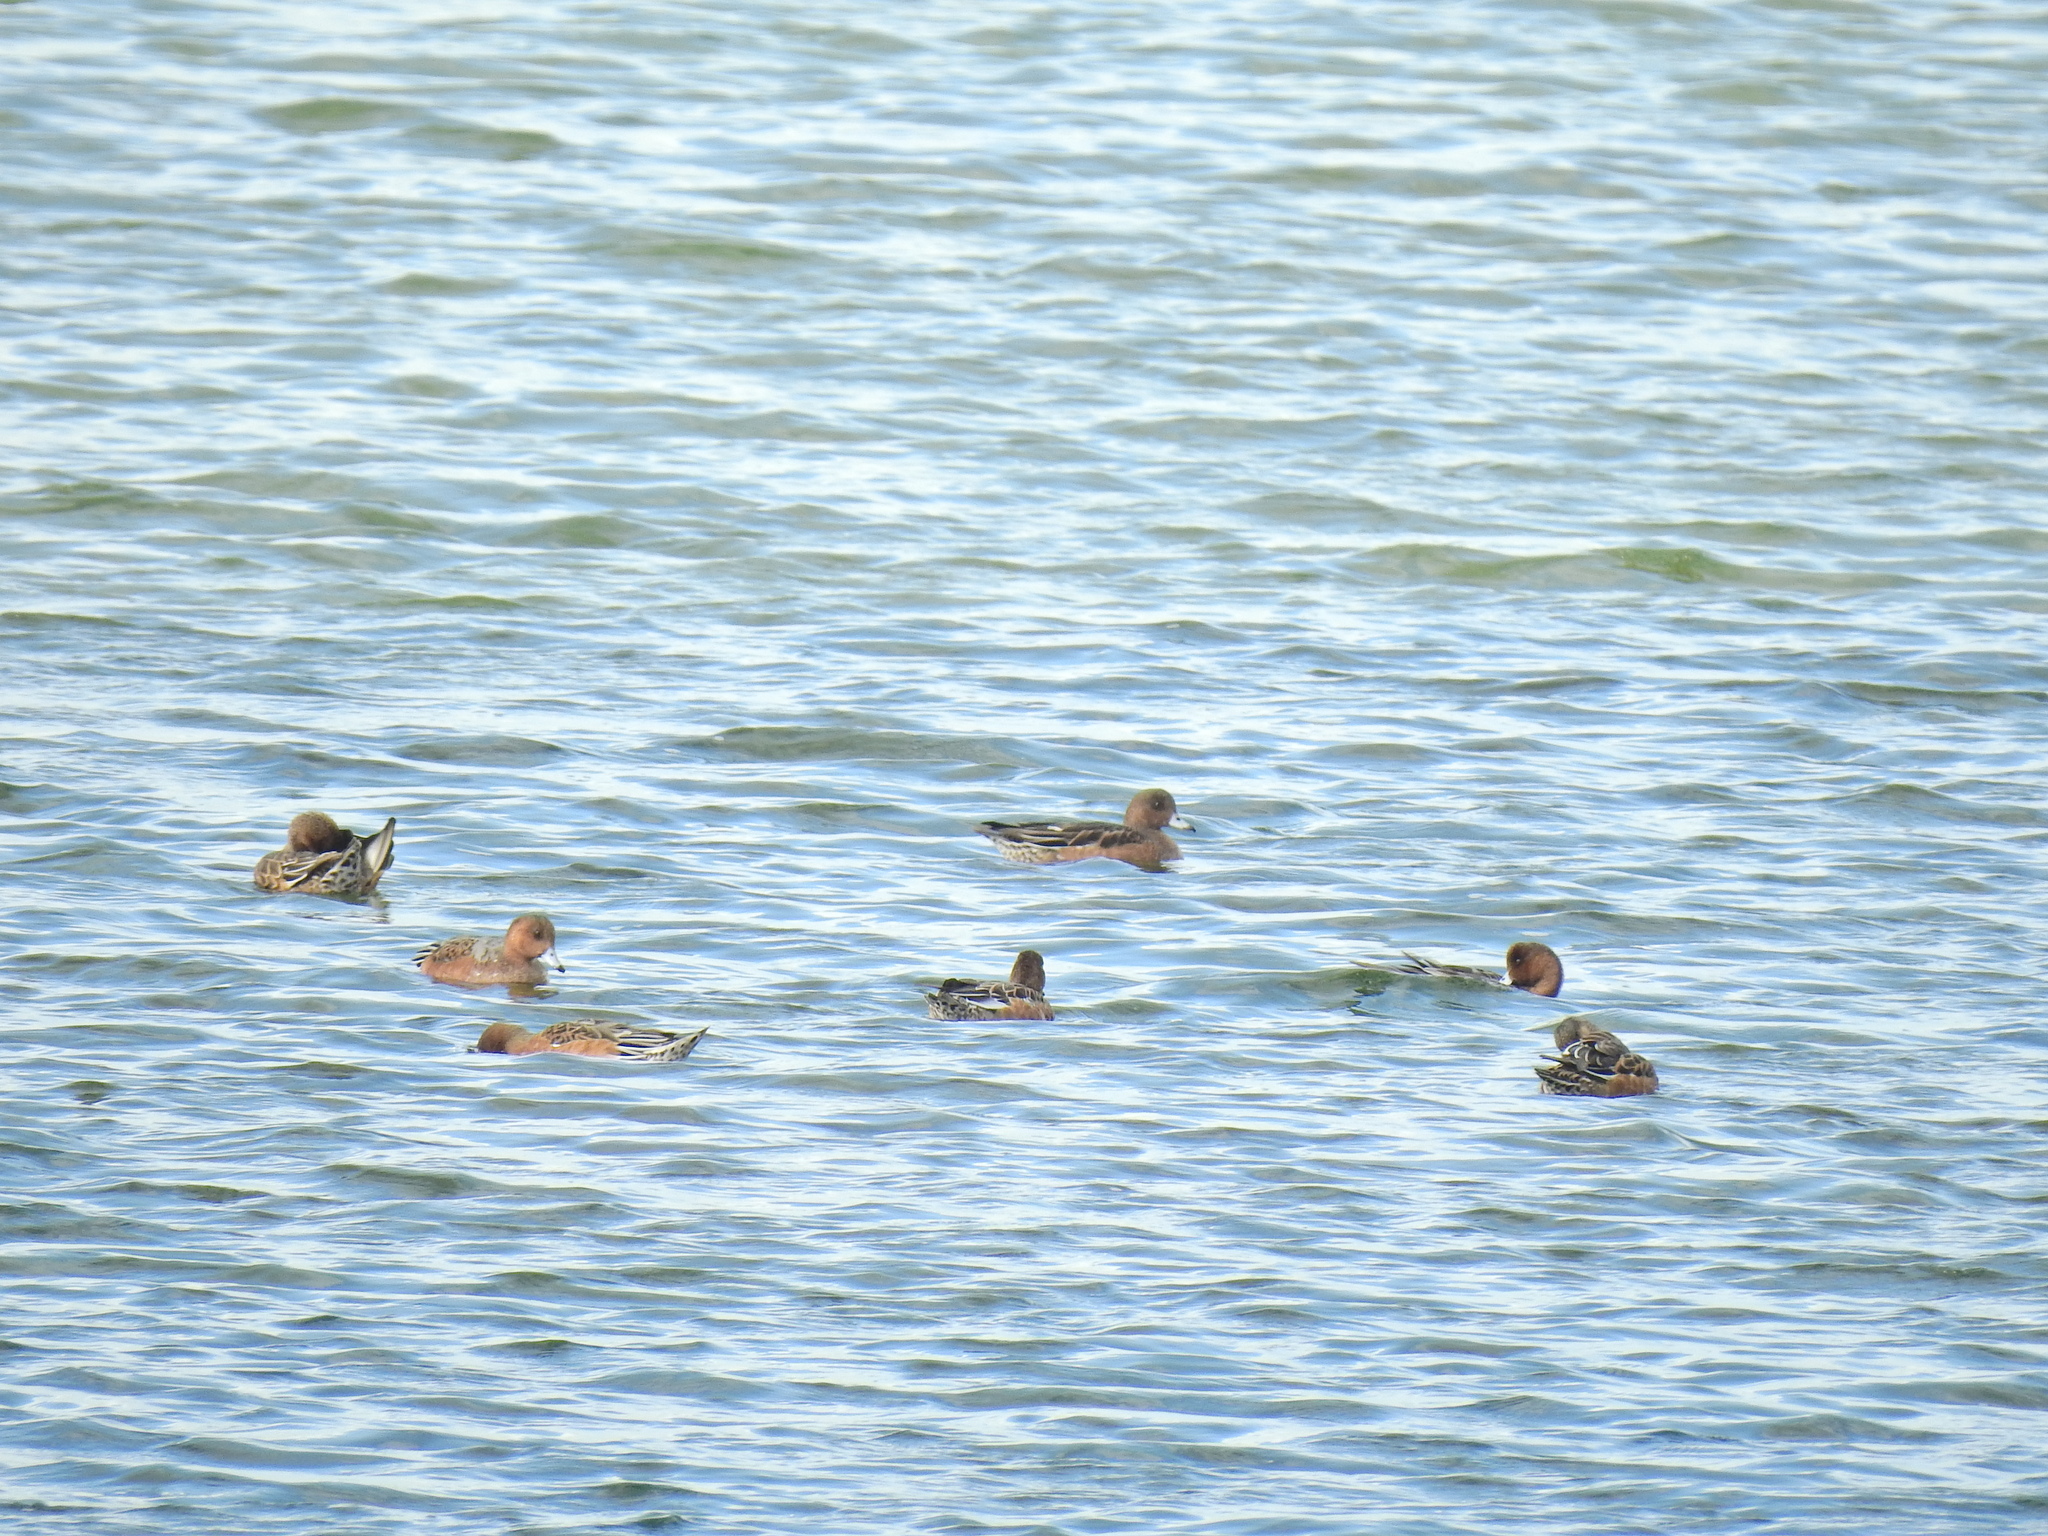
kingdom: Animalia
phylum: Chordata
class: Aves
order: Anseriformes
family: Anatidae
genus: Mareca
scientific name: Mareca penelope
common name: Eurasian wigeon
